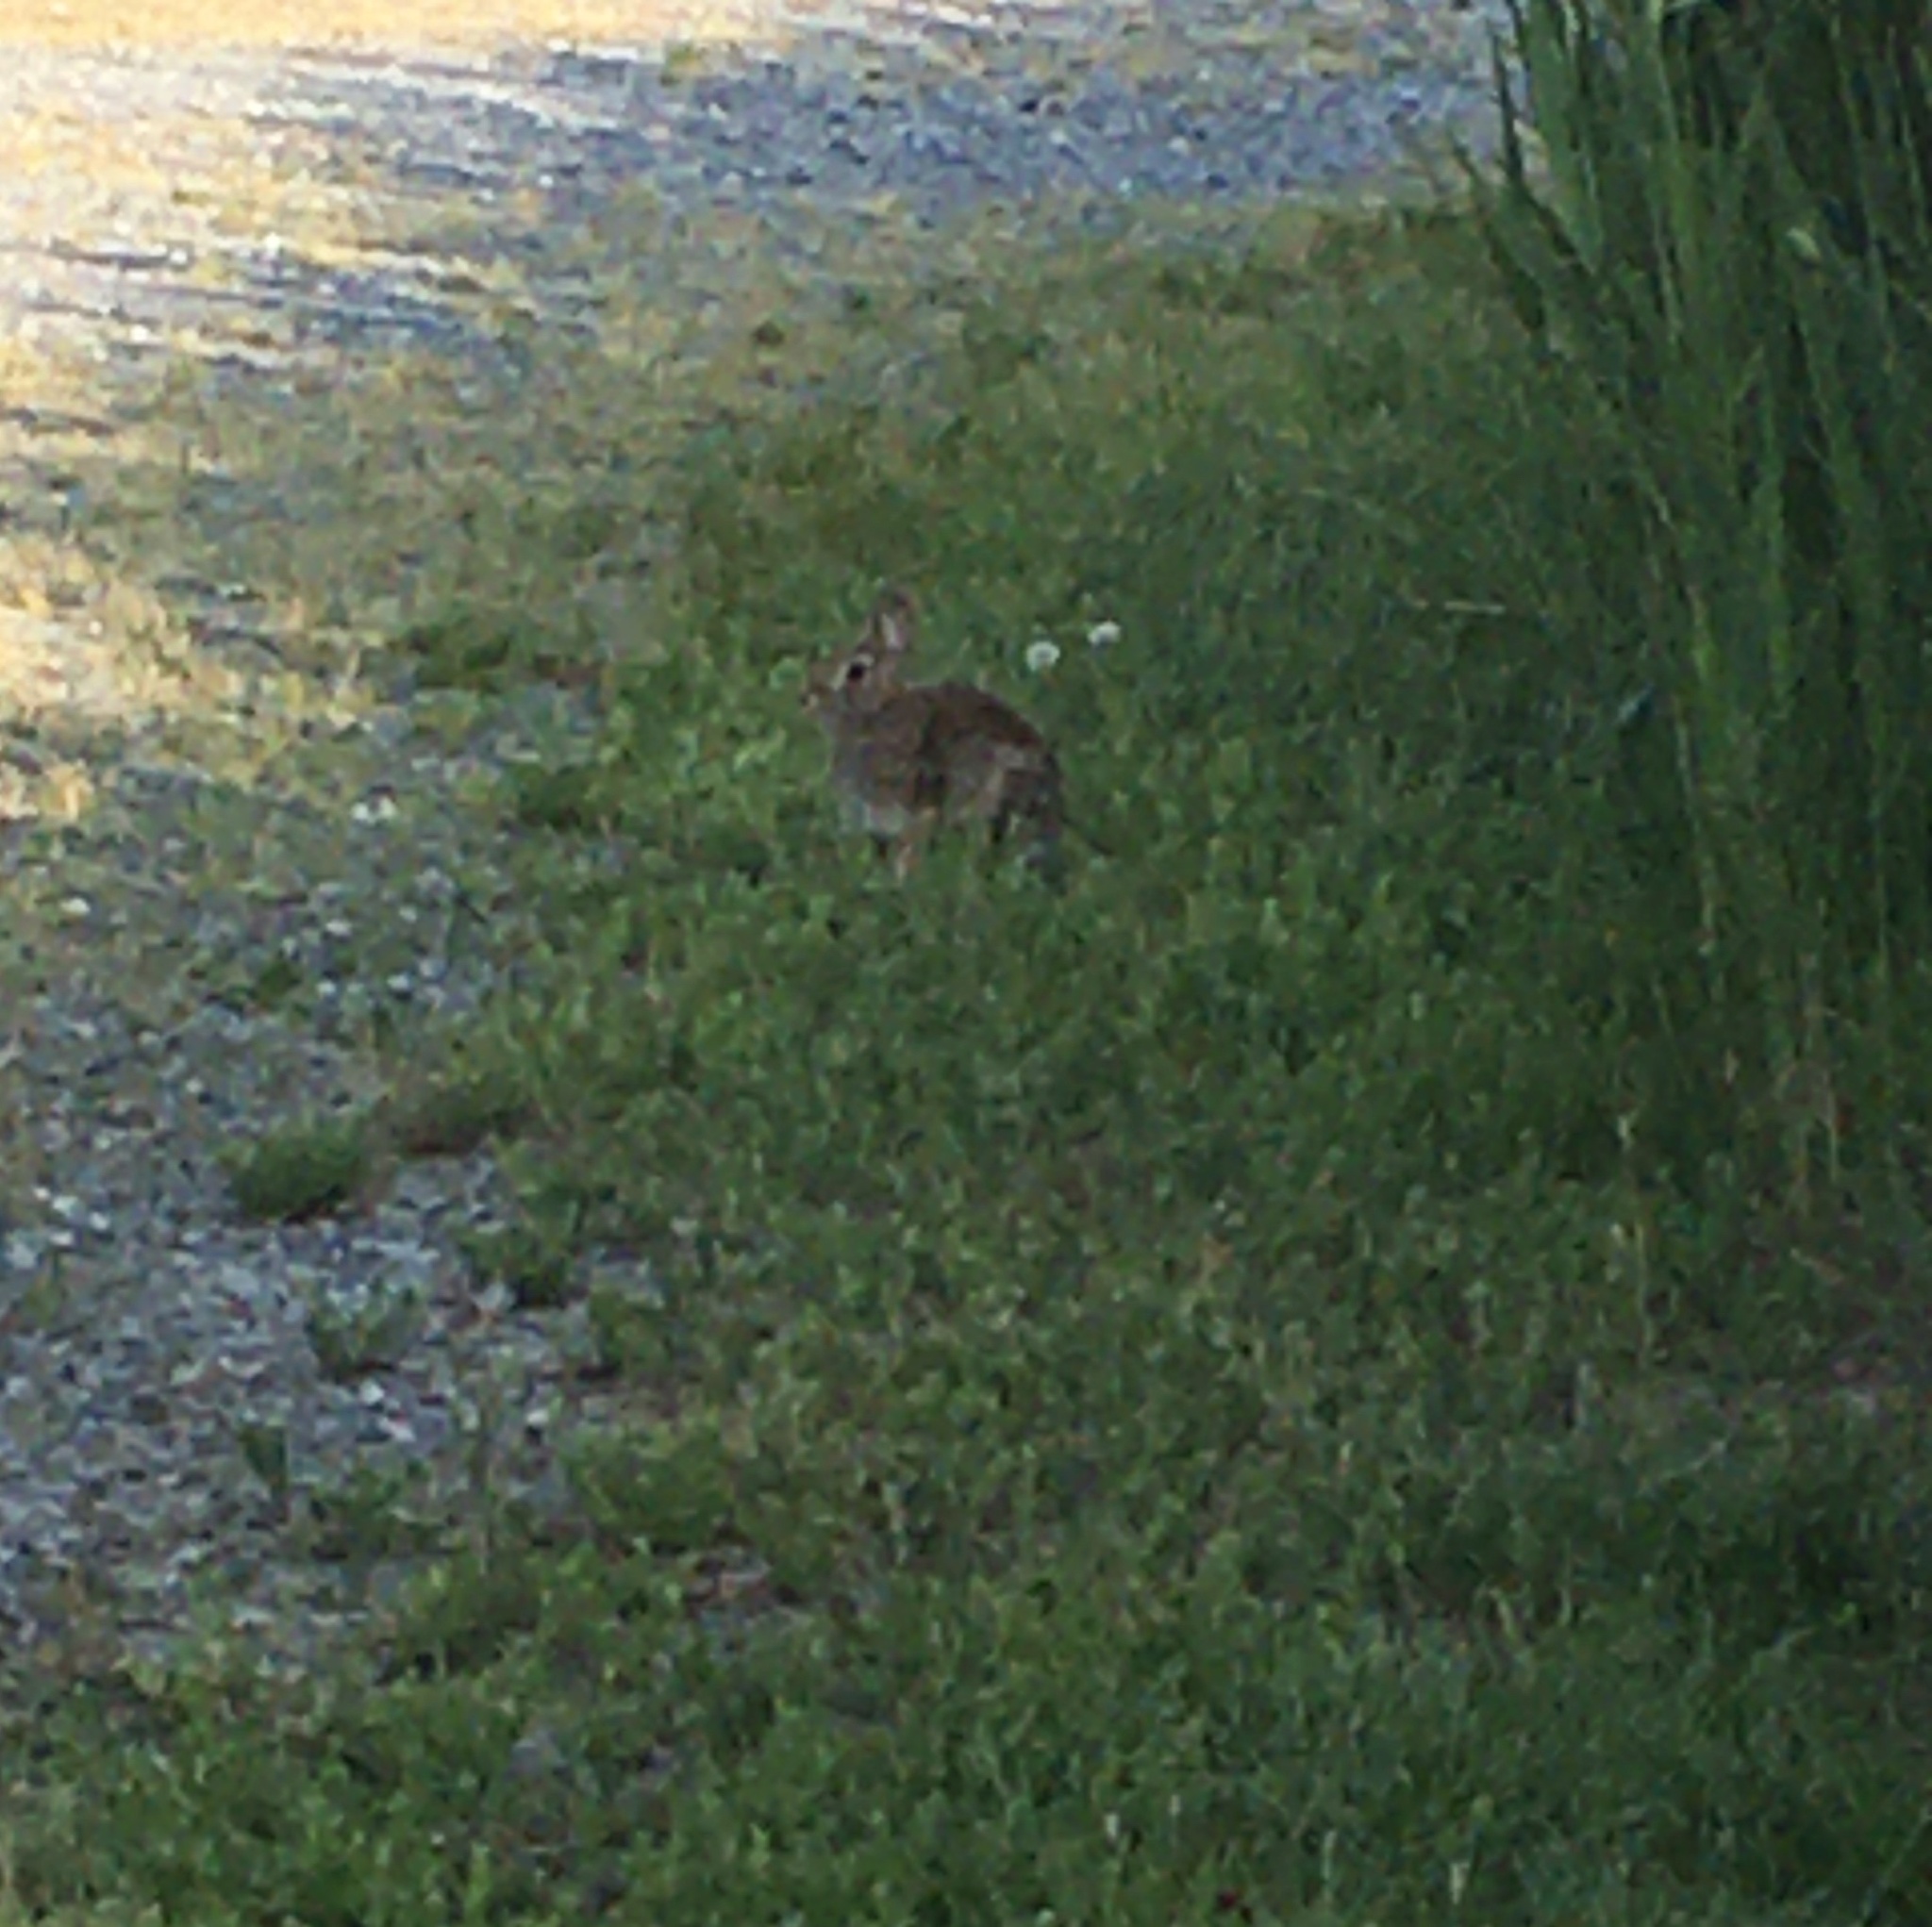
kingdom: Animalia
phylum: Chordata
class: Mammalia
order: Lagomorpha
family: Leporidae
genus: Sylvilagus
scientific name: Sylvilagus floridanus
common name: Eastern cottontail
